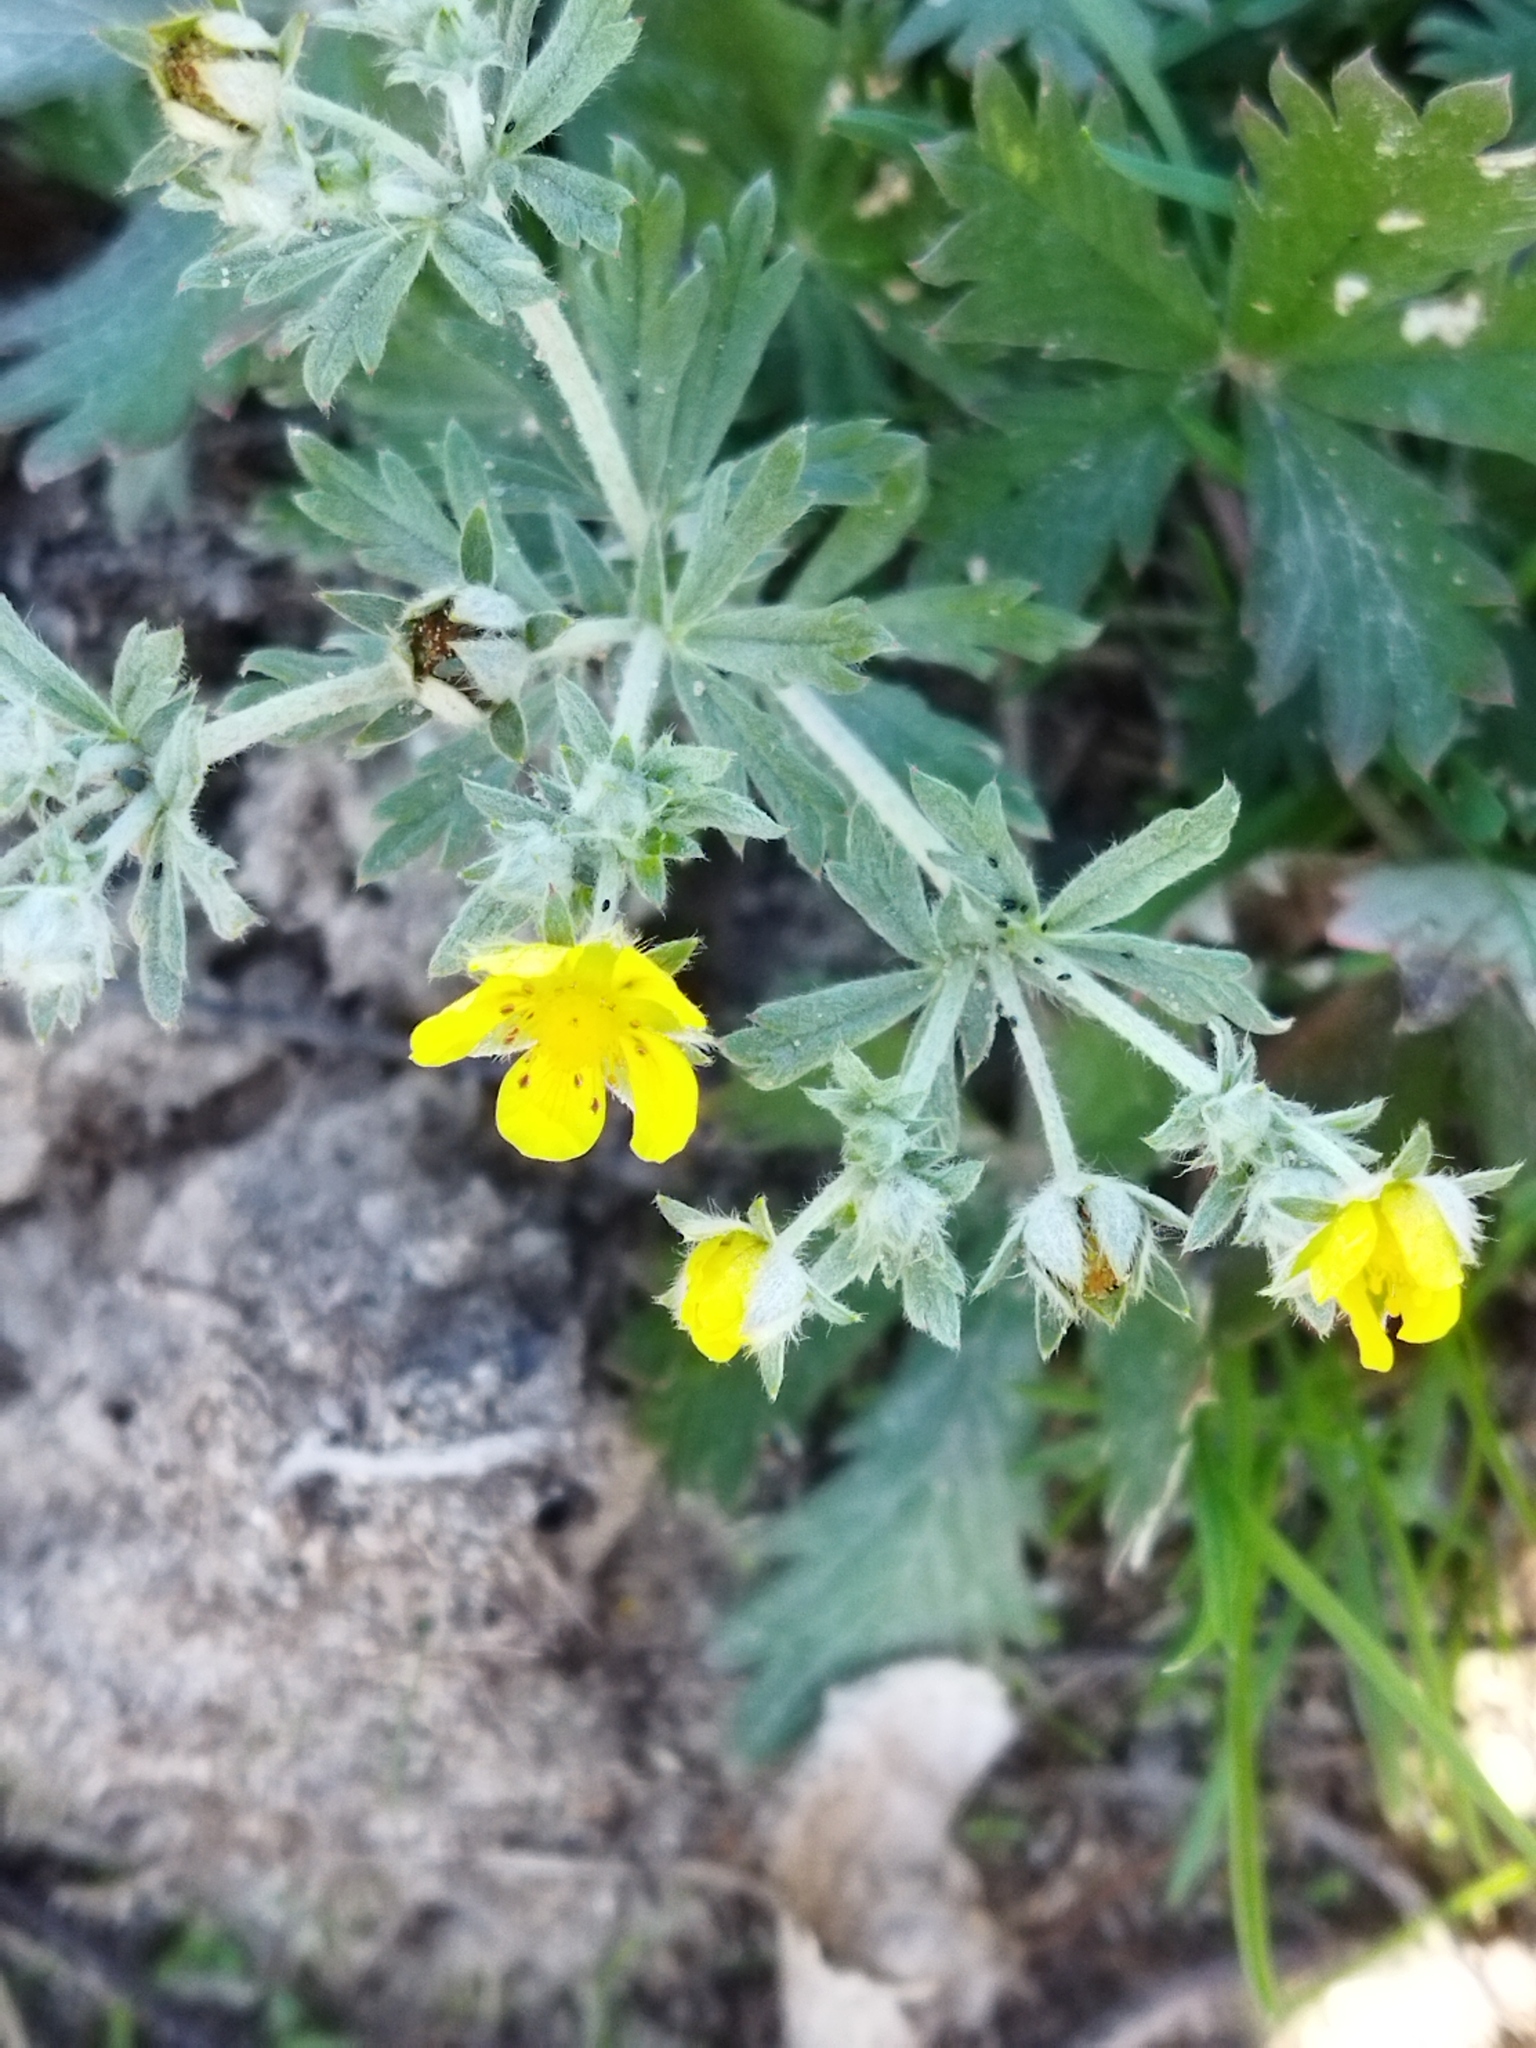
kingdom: Plantae
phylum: Tracheophyta
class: Magnoliopsida
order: Rosales
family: Rosaceae
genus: Potentilla
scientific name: Potentilla argentea
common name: Hoary cinquefoil
